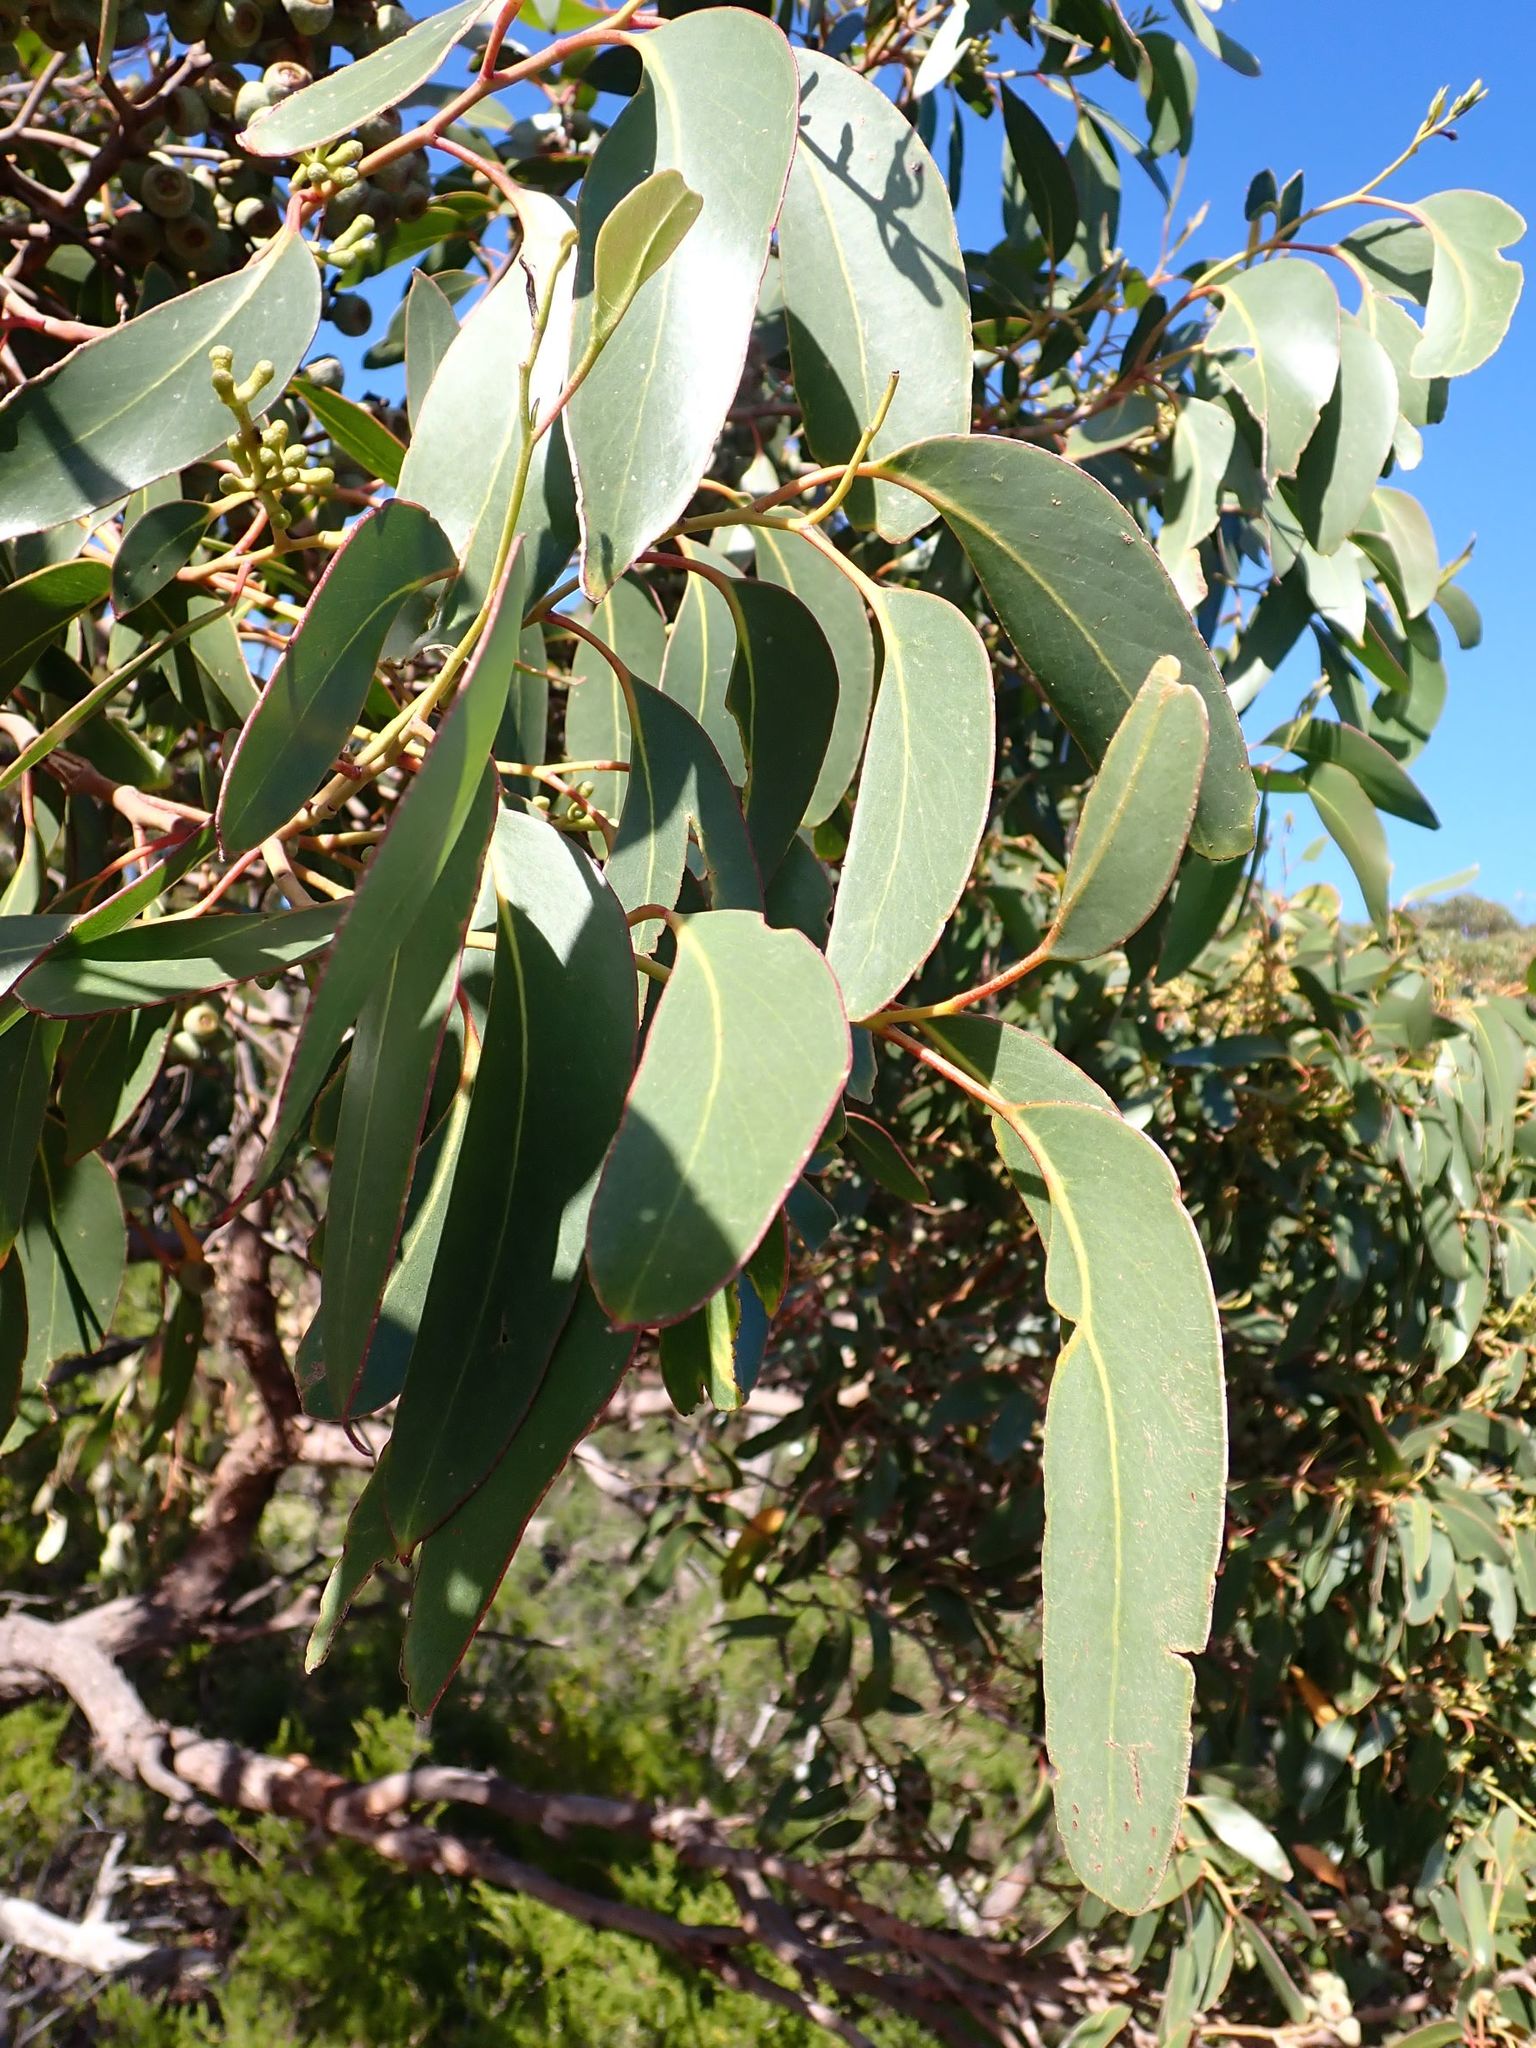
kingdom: Plantae
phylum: Tracheophyta
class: Magnoliopsida
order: Myrtales
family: Myrtaceae
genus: Eucalyptus
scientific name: Eucalyptus baxteri
